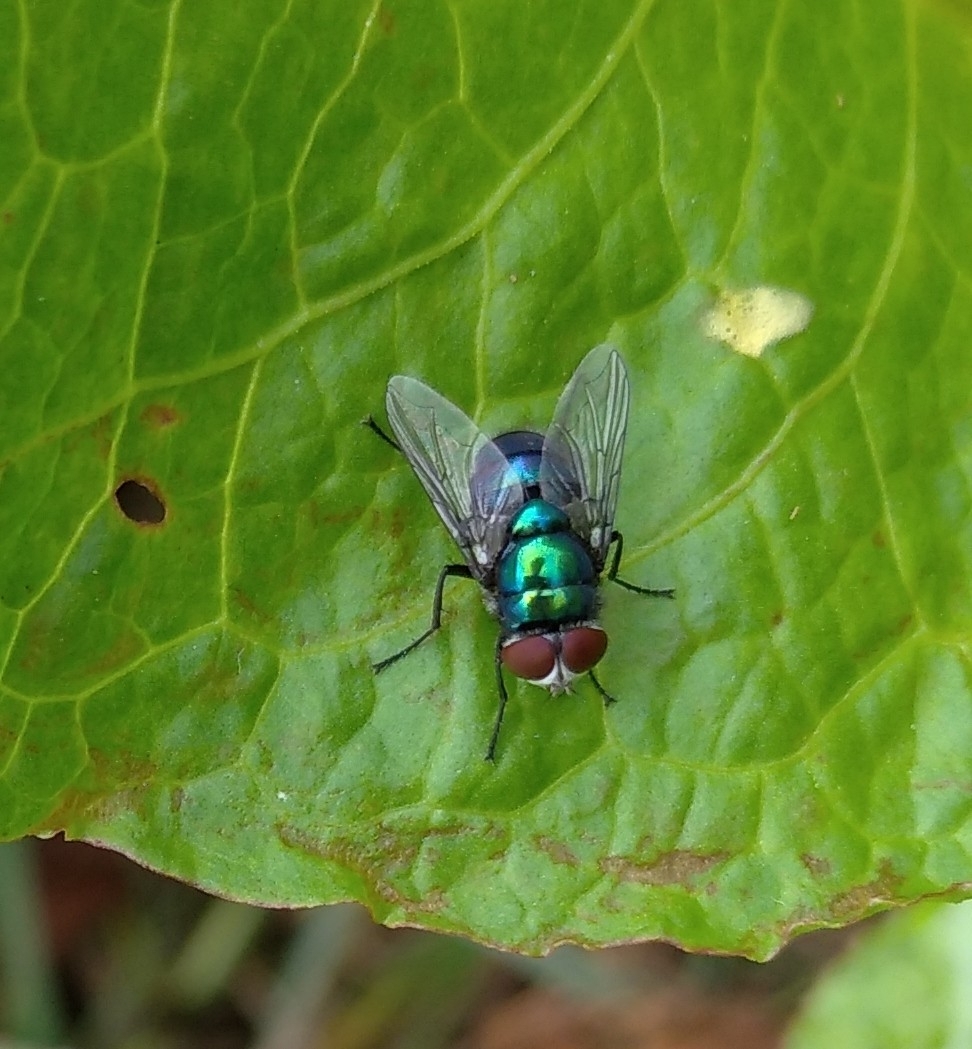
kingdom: Animalia
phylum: Arthropoda
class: Insecta
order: Diptera
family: Calliphoridae
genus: Chrysomya
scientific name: Chrysomya albiceps
